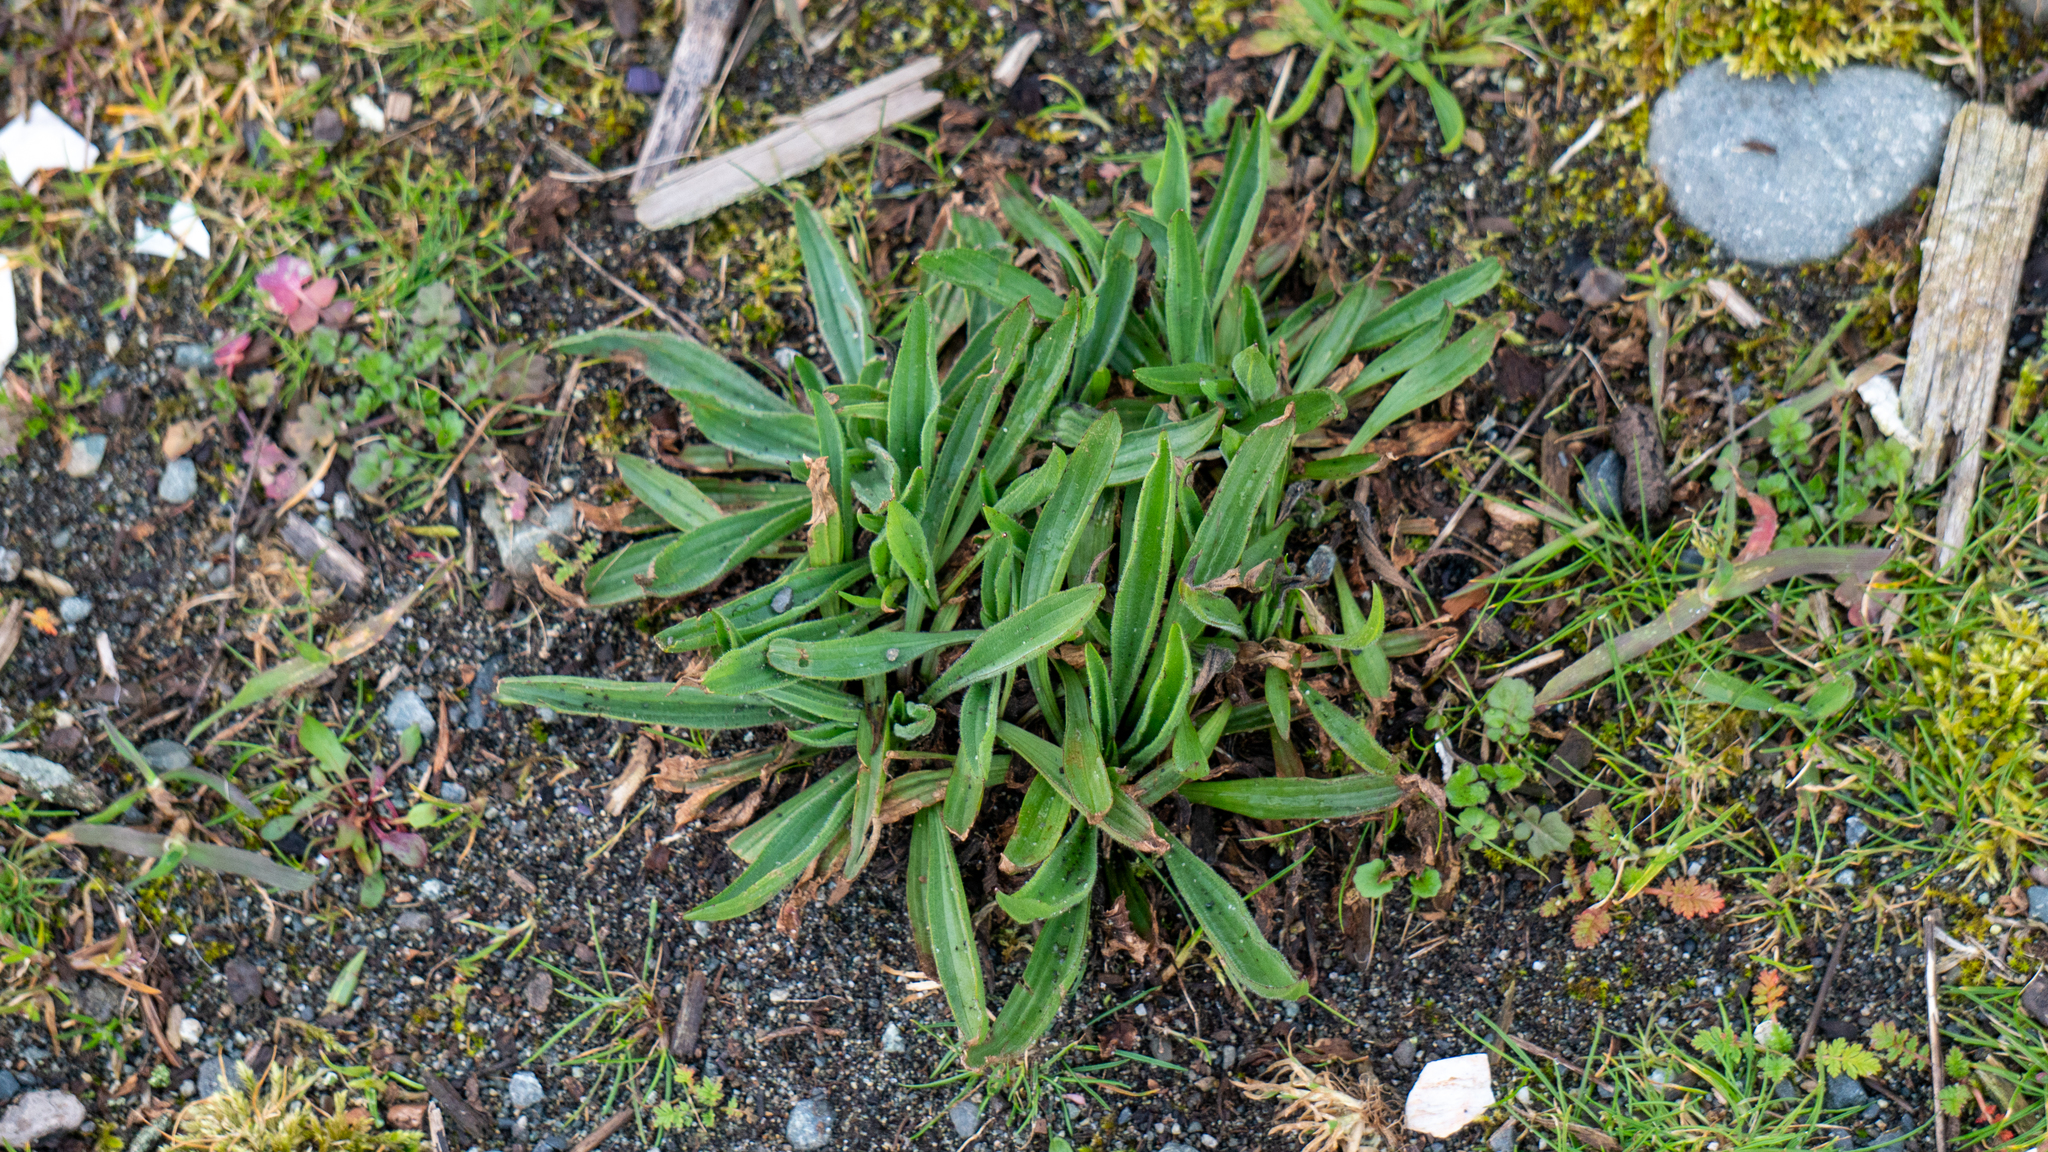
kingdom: Plantae
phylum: Tracheophyta
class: Magnoliopsida
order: Lamiales
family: Plantaginaceae
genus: Plantago
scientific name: Plantago lanceolata
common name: Ribwort plantain
